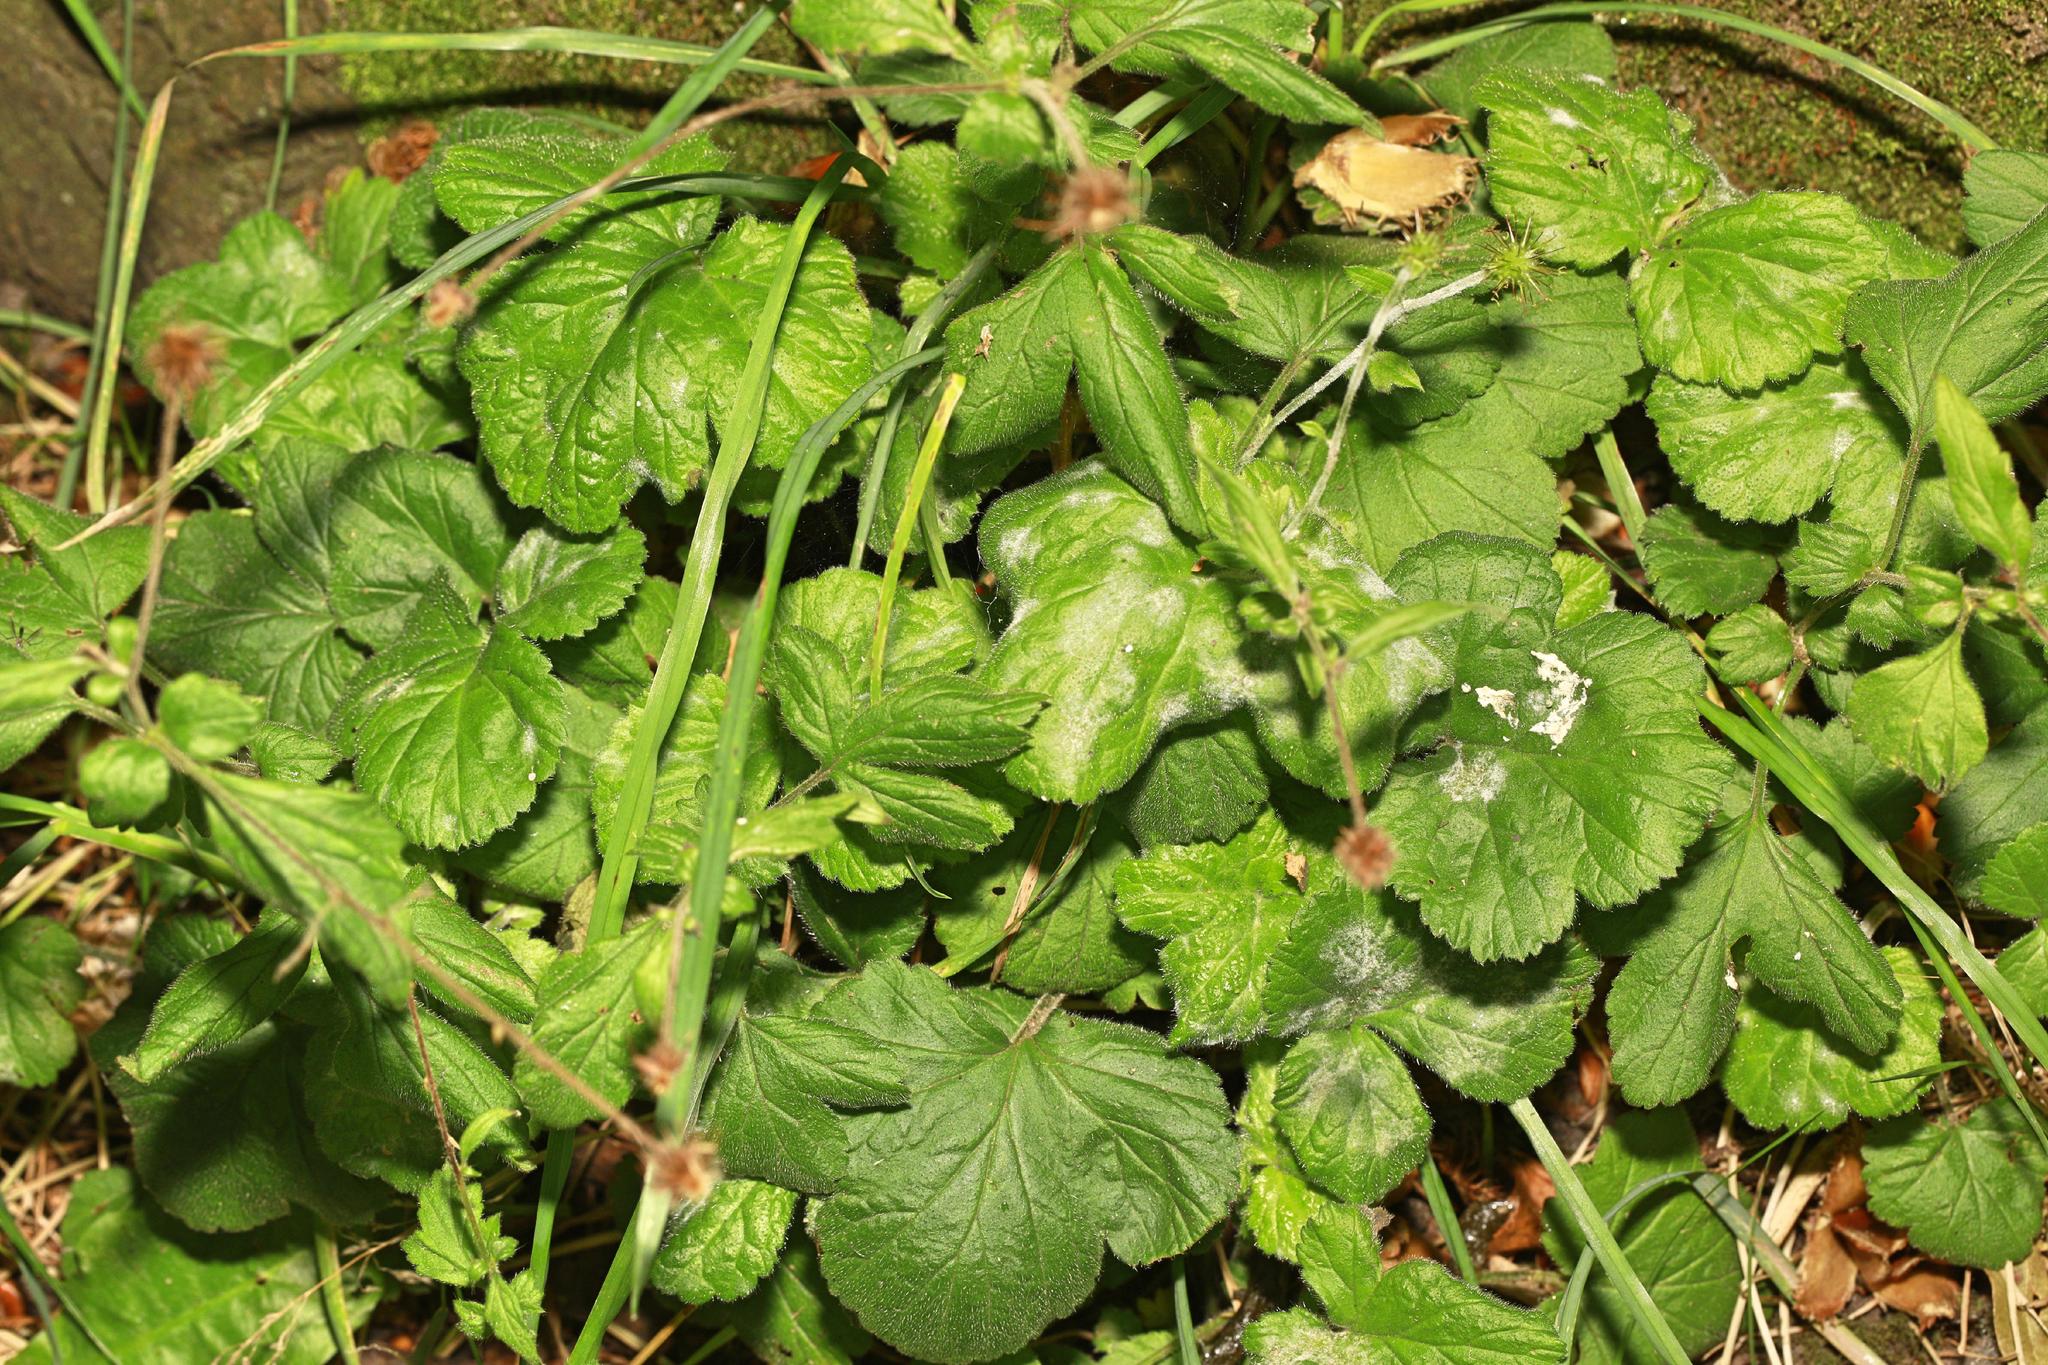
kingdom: Fungi
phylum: Ascomycota
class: Leotiomycetes
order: Helotiales
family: Erysiphaceae
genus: Podosphaera
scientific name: Podosphaera aphanis
